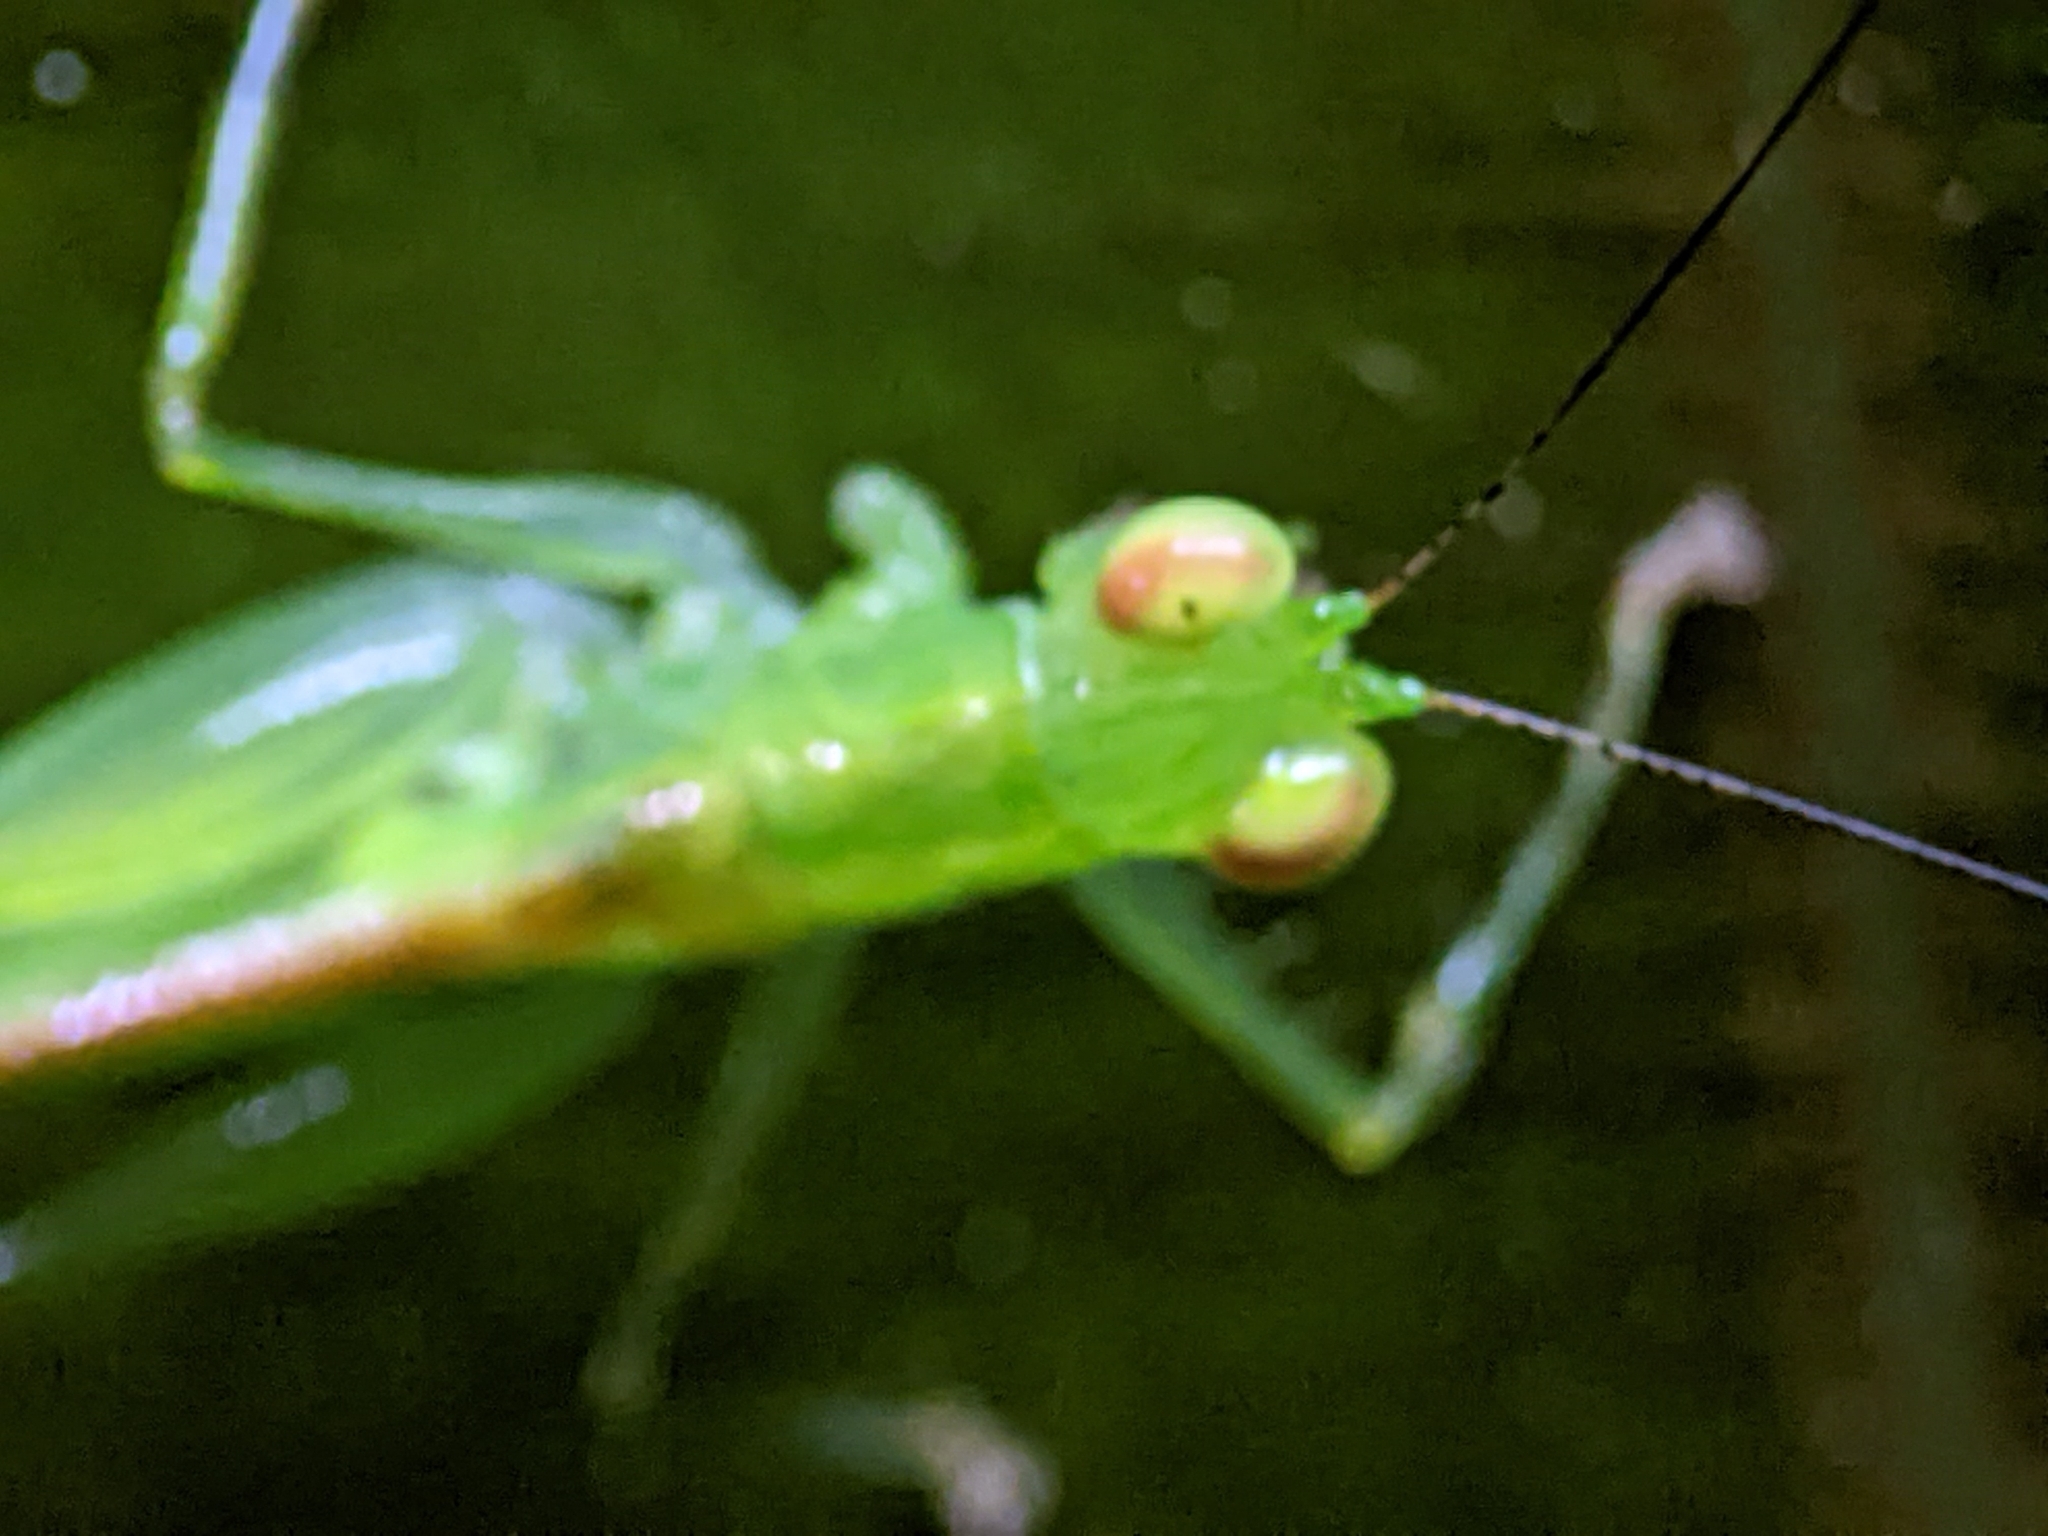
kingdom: Animalia
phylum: Arthropoda
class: Insecta
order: Orthoptera
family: Tettigoniidae
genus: Asiophlugis
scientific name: Asiophlugis thaumasia
